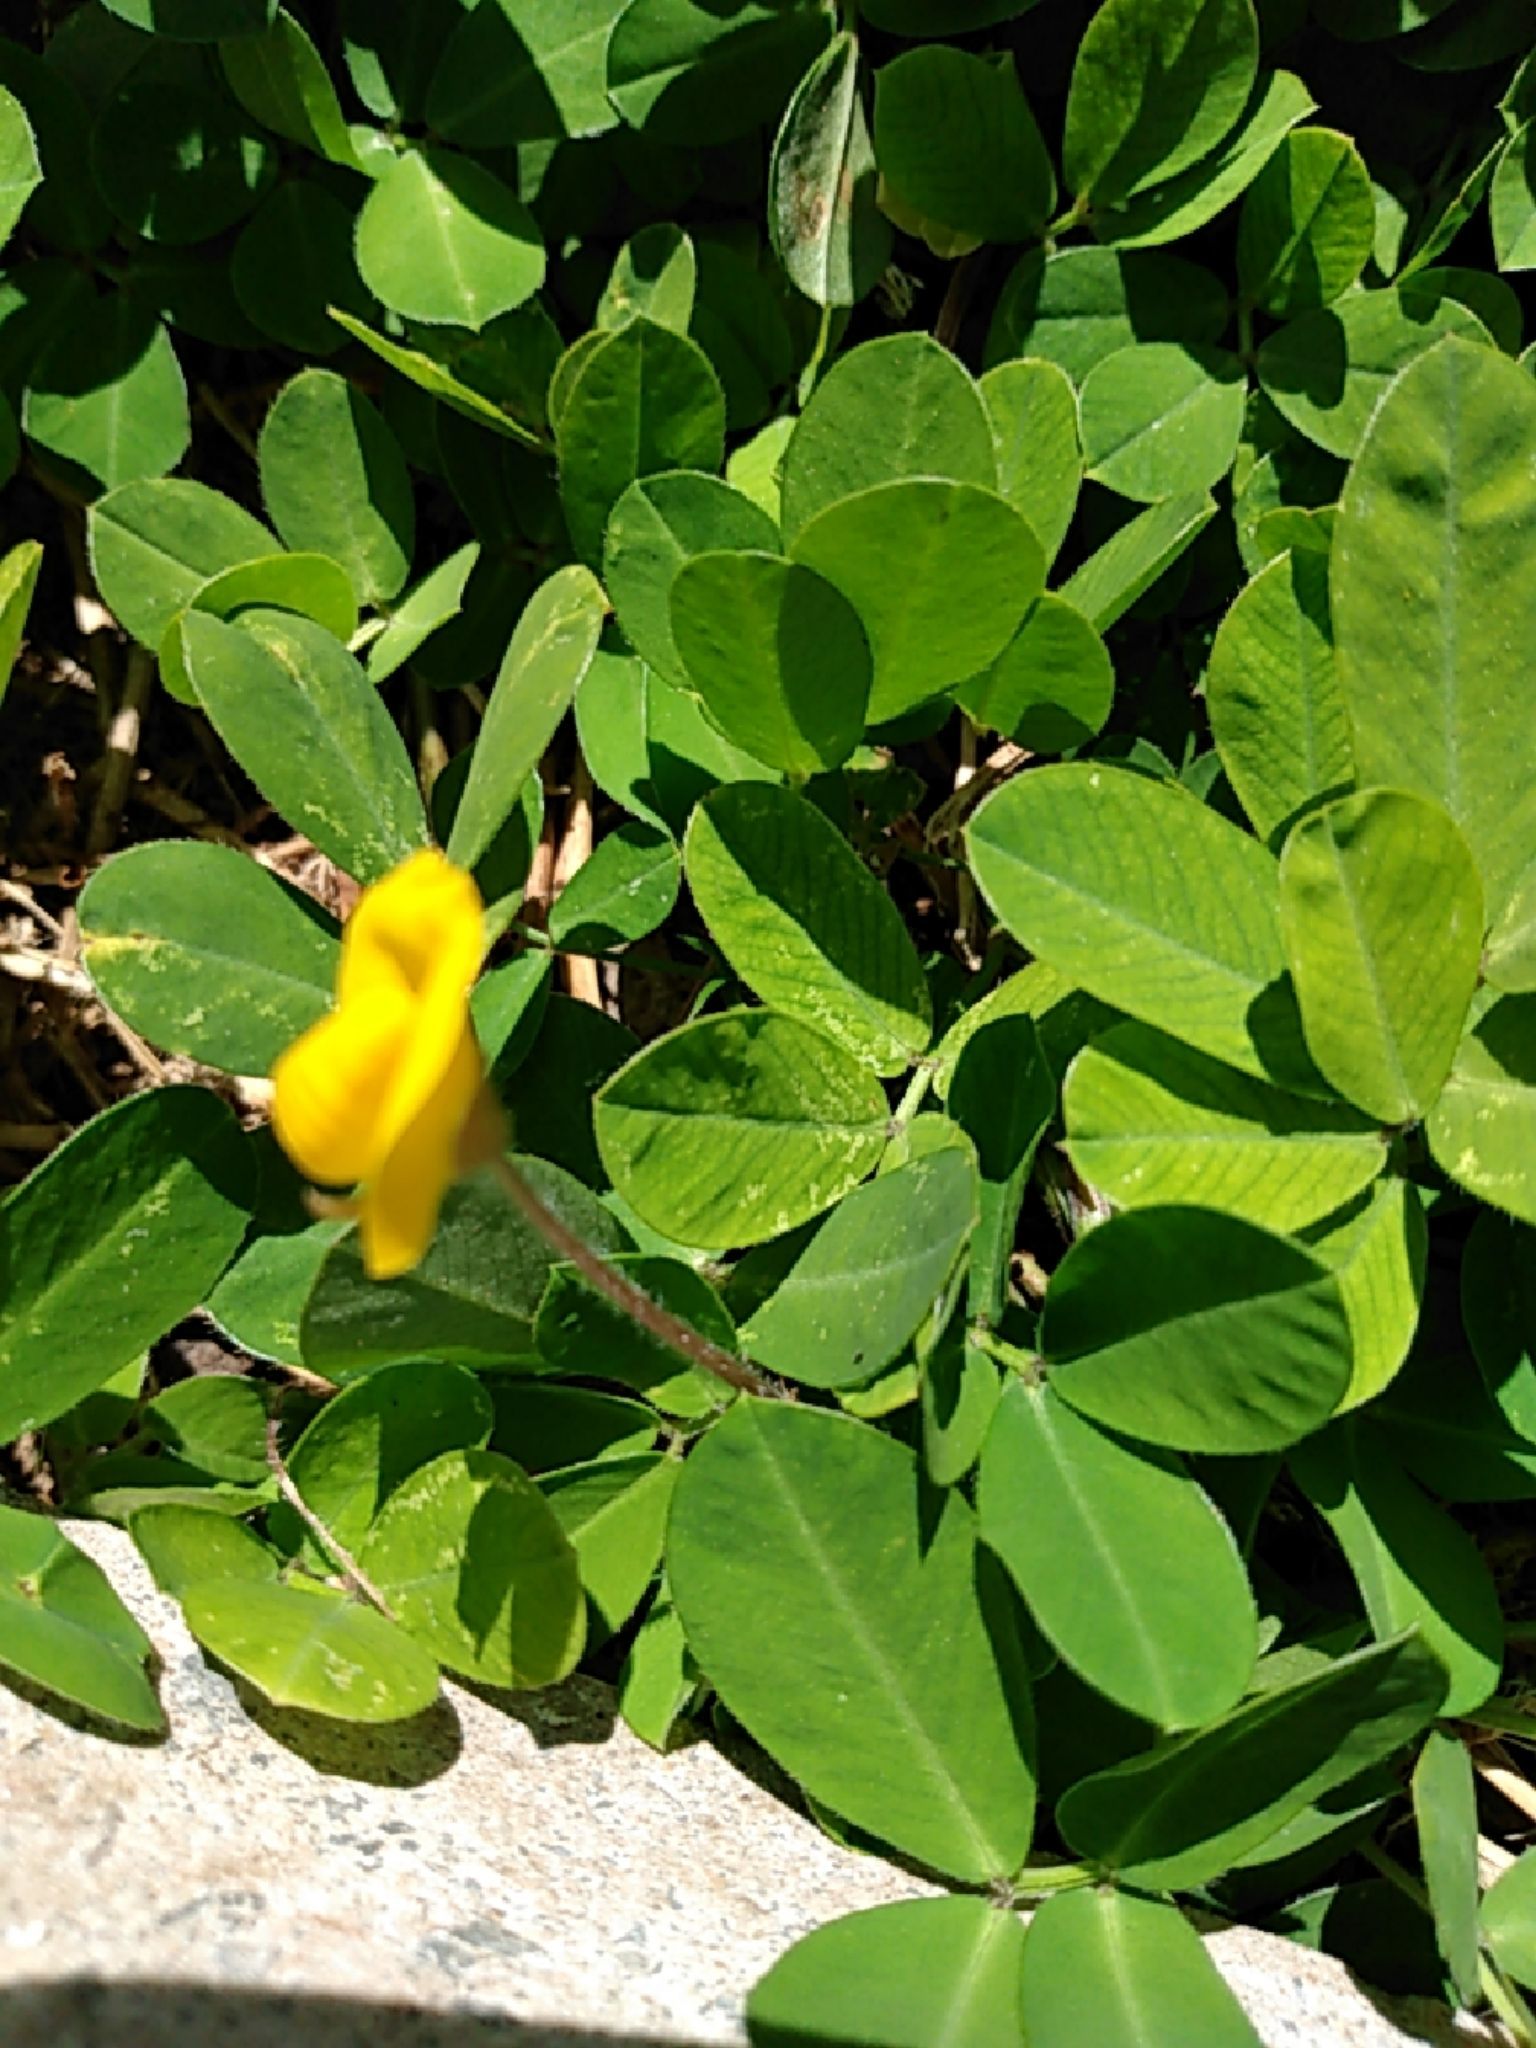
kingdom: Plantae
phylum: Tracheophyta
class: Magnoliopsida
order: Fabales
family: Fabaceae
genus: Arachis
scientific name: Arachis pintoi
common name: Pinto peanut
